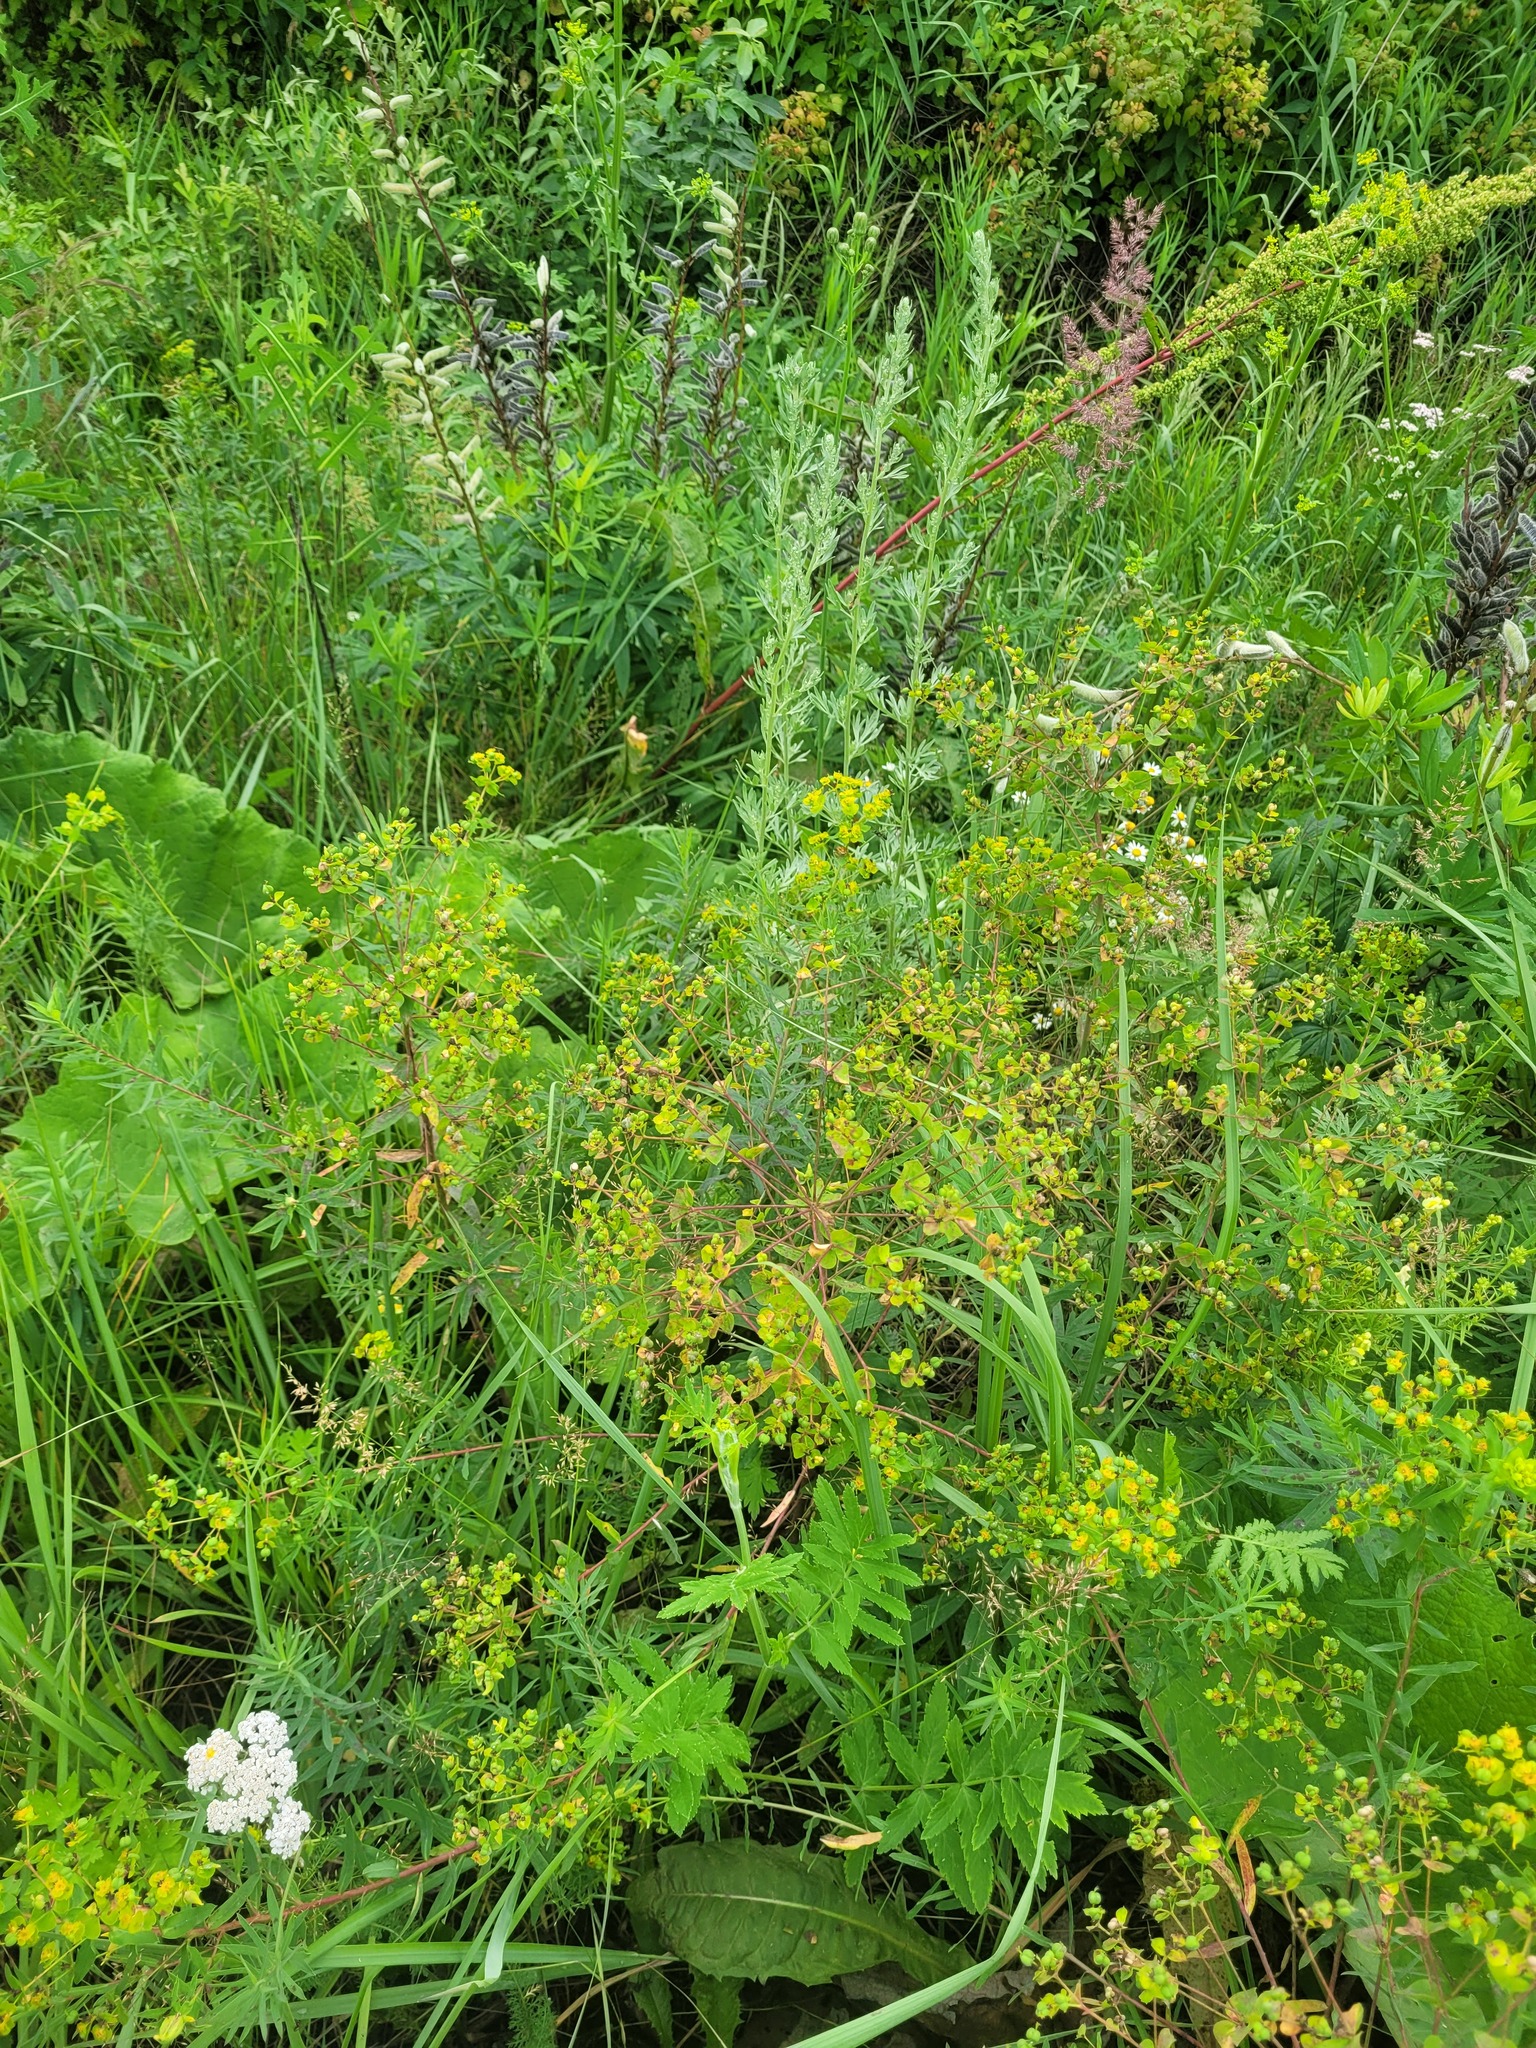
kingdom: Plantae
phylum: Tracheophyta
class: Magnoliopsida
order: Malpighiales
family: Euphorbiaceae
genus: Euphorbia
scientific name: Euphorbia virgata
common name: Leafy spurge
